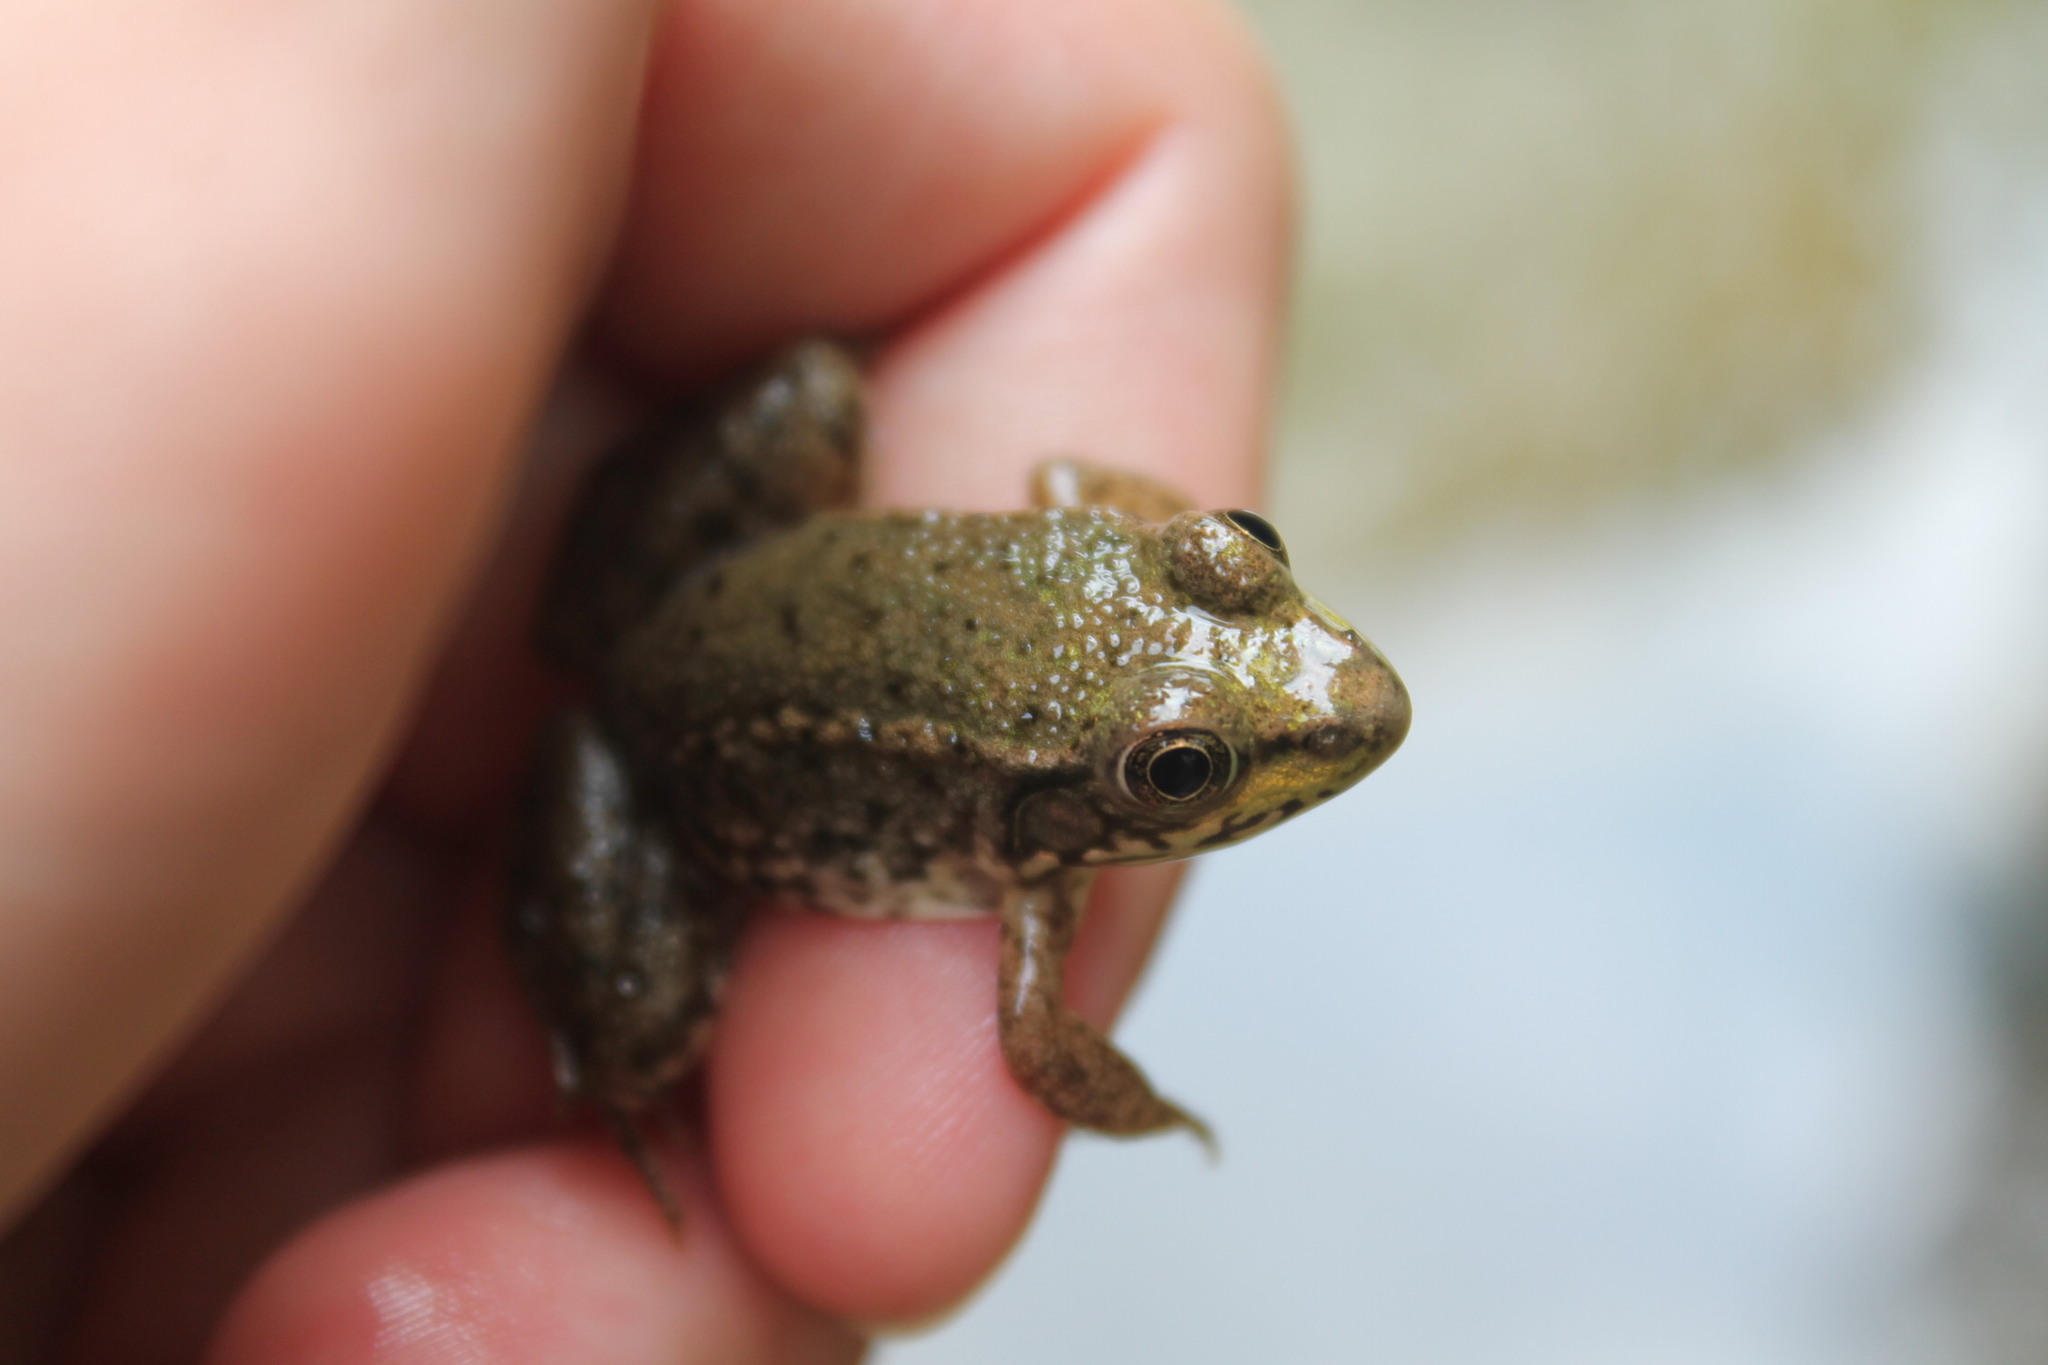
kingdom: Animalia
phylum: Chordata
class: Amphibia
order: Anura
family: Ranidae
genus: Lithobates
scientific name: Lithobates clamitans
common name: Green frog
